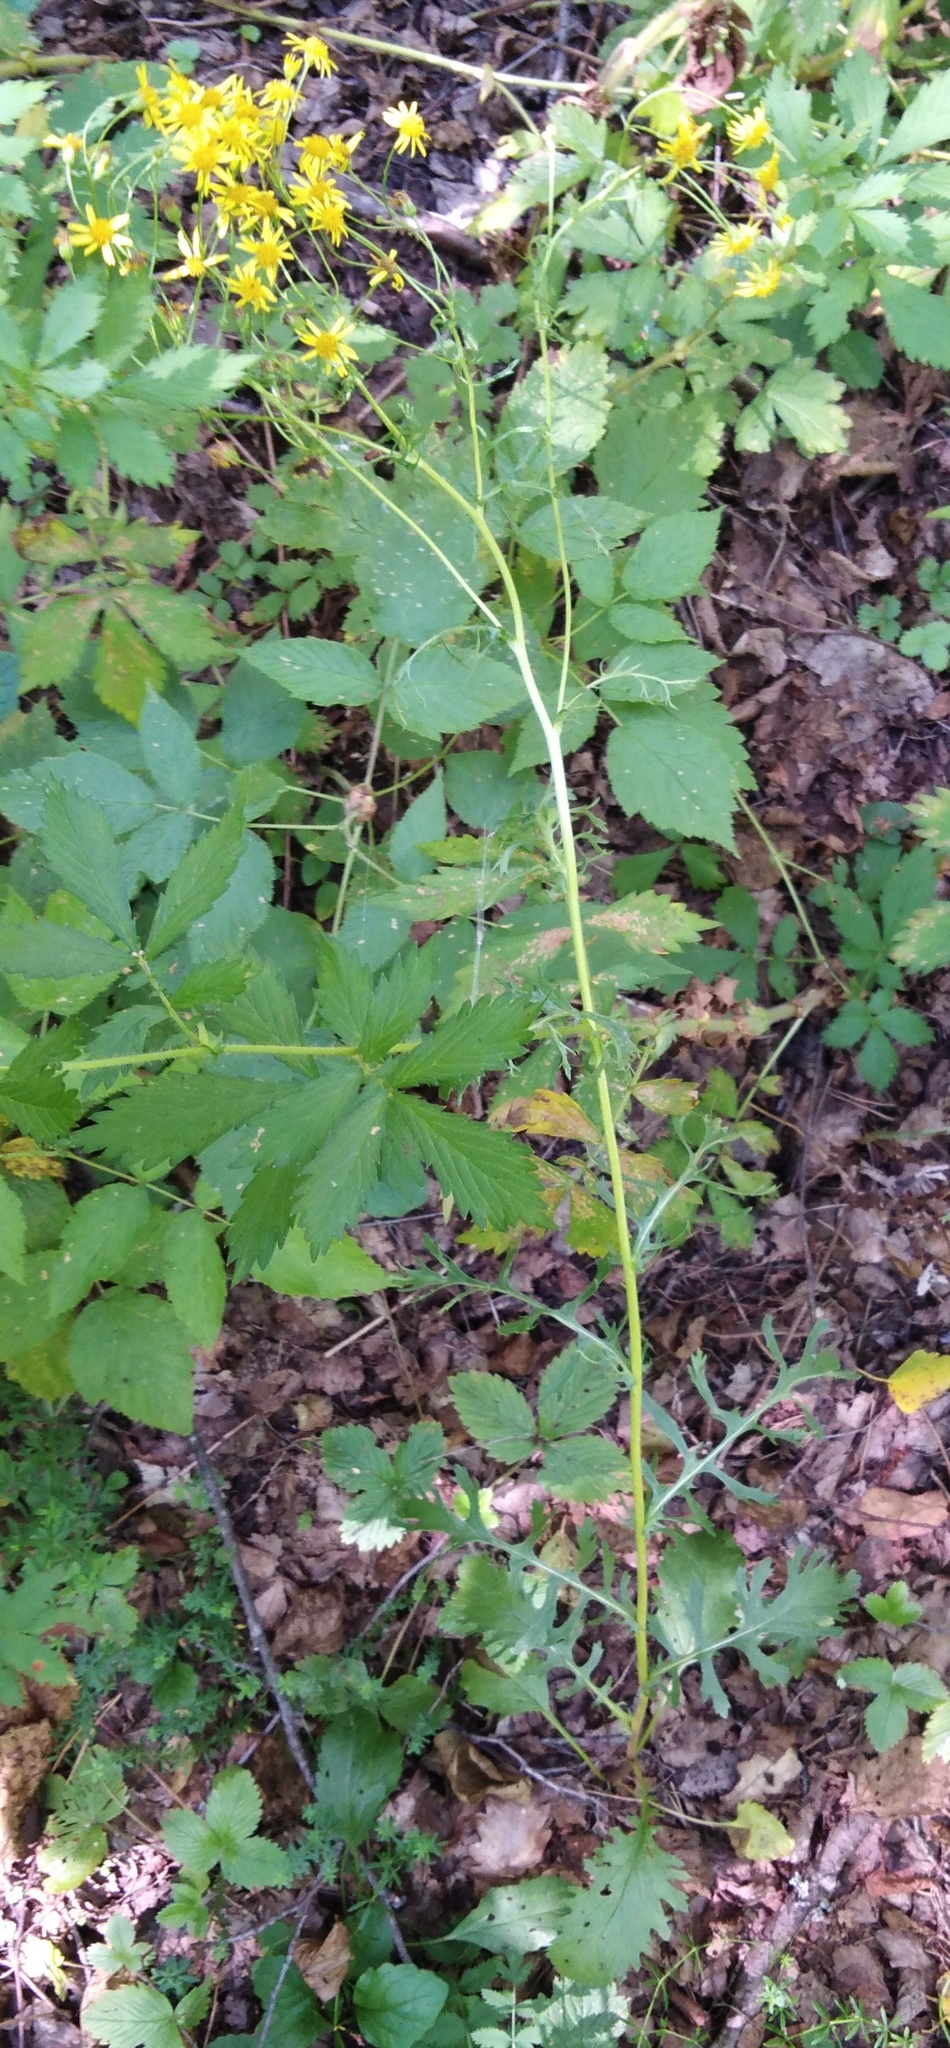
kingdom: Plantae
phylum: Tracheophyta
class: Magnoliopsida
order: Asterales
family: Asteraceae
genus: Jacobaea
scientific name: Jacobaea vulgaris
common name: Stinking willie
